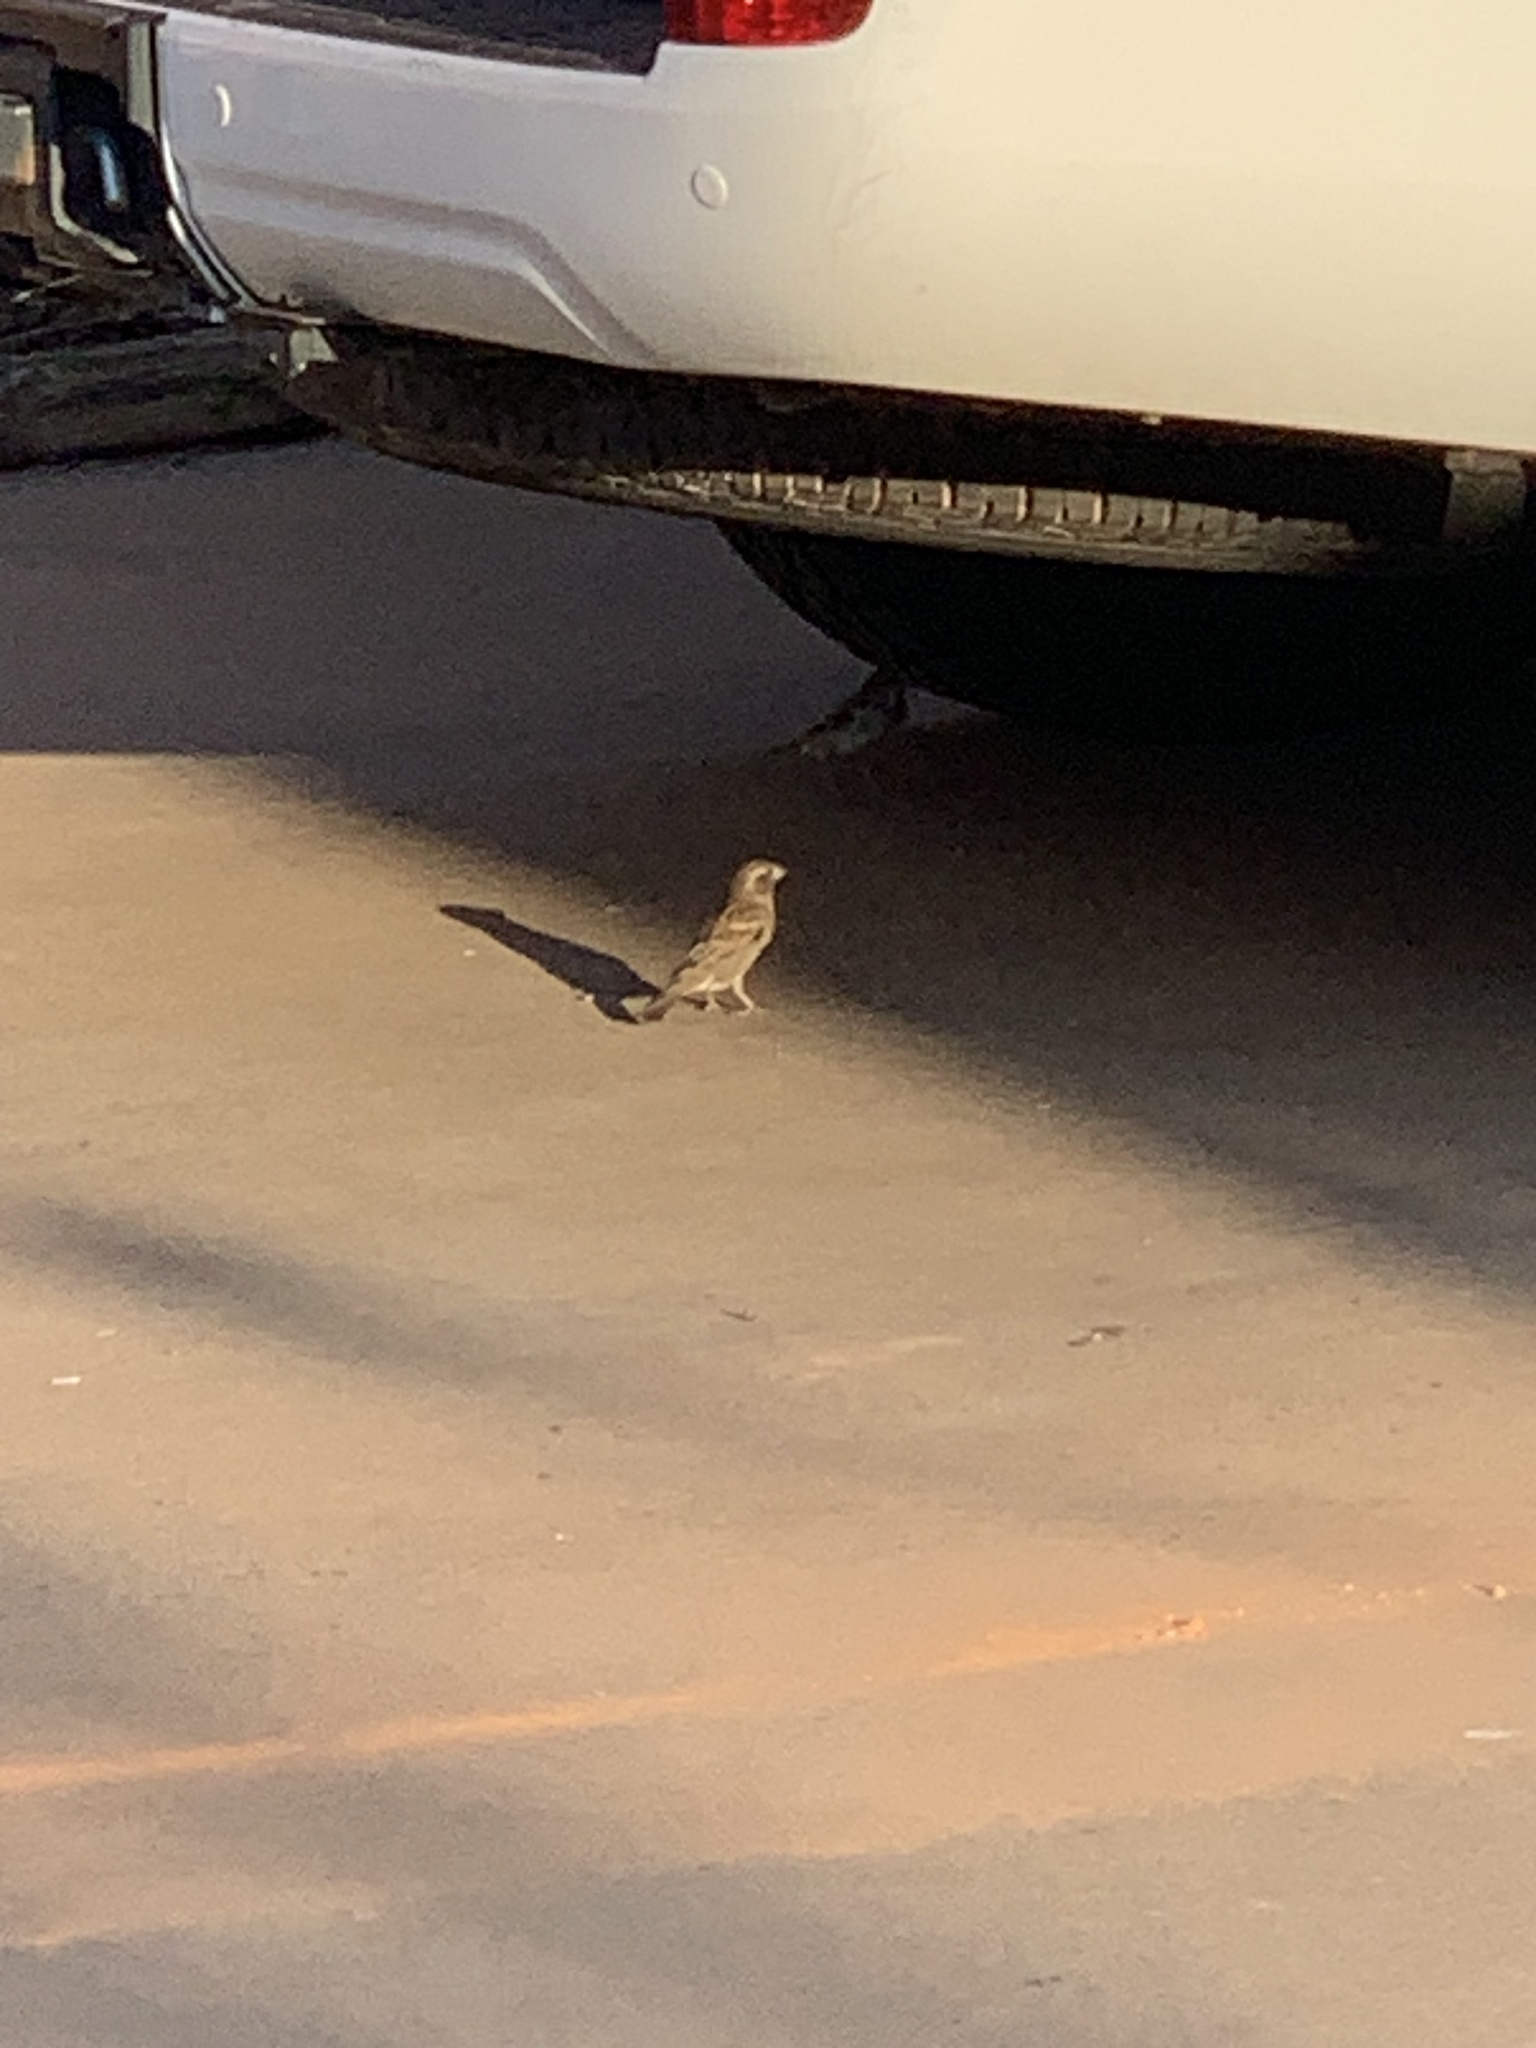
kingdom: Animalia
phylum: Chordata
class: Aves
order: Passeriformes
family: Passeridae
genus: Passer
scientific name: Passer domesticus
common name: House sparrow
